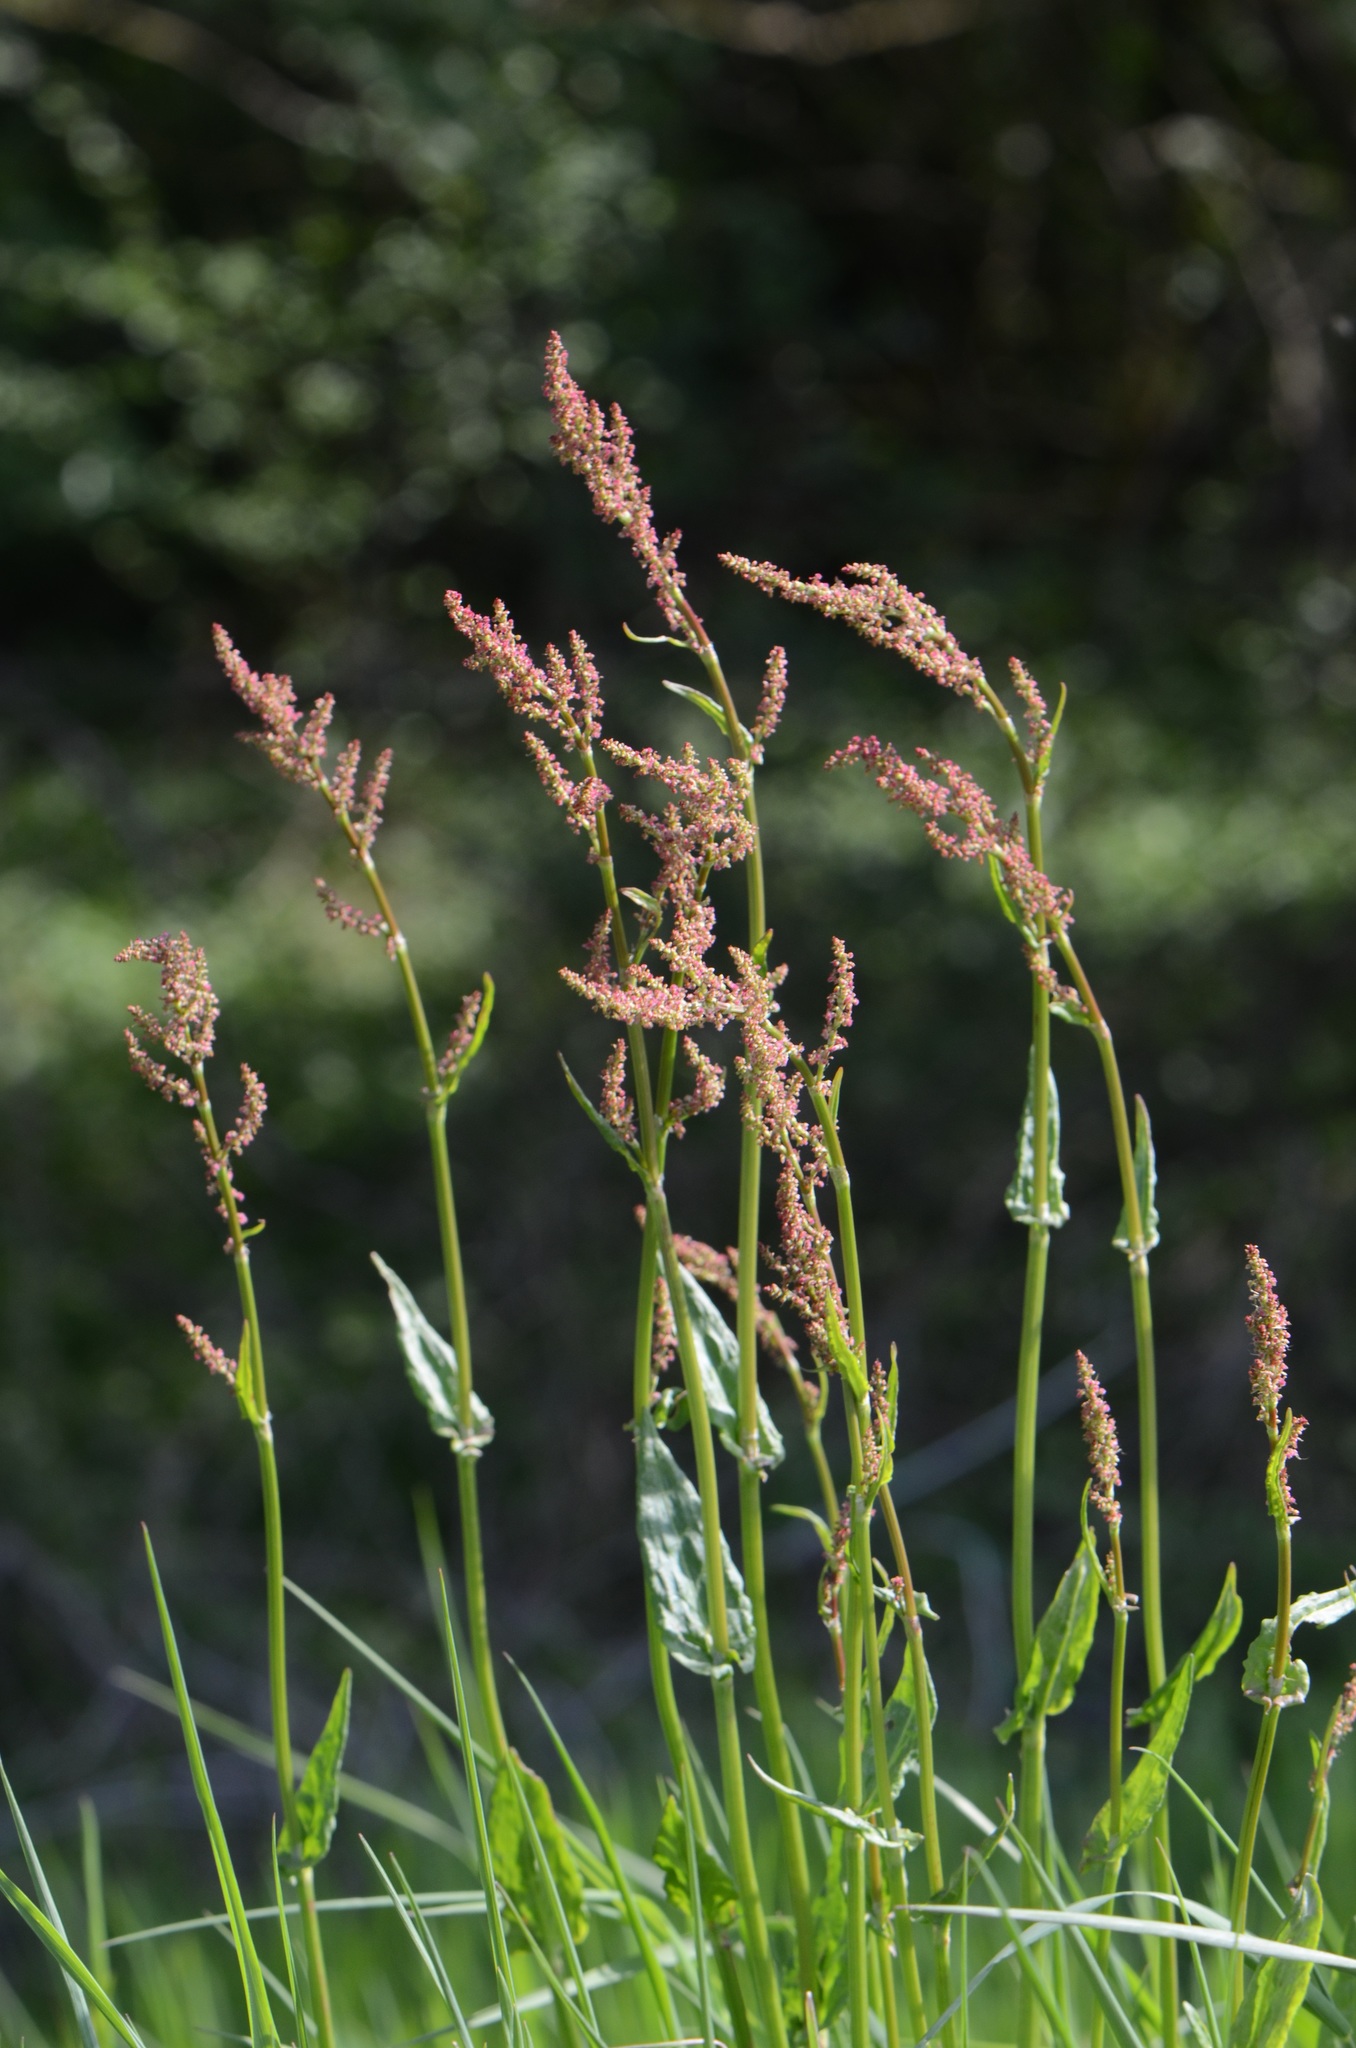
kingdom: Plantae
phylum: Tracheophyta
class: Magnoliopsida
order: Caryophyllales
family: Polygonaceae
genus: Rumex
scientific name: Rumex acetosa
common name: Garden sorrel
